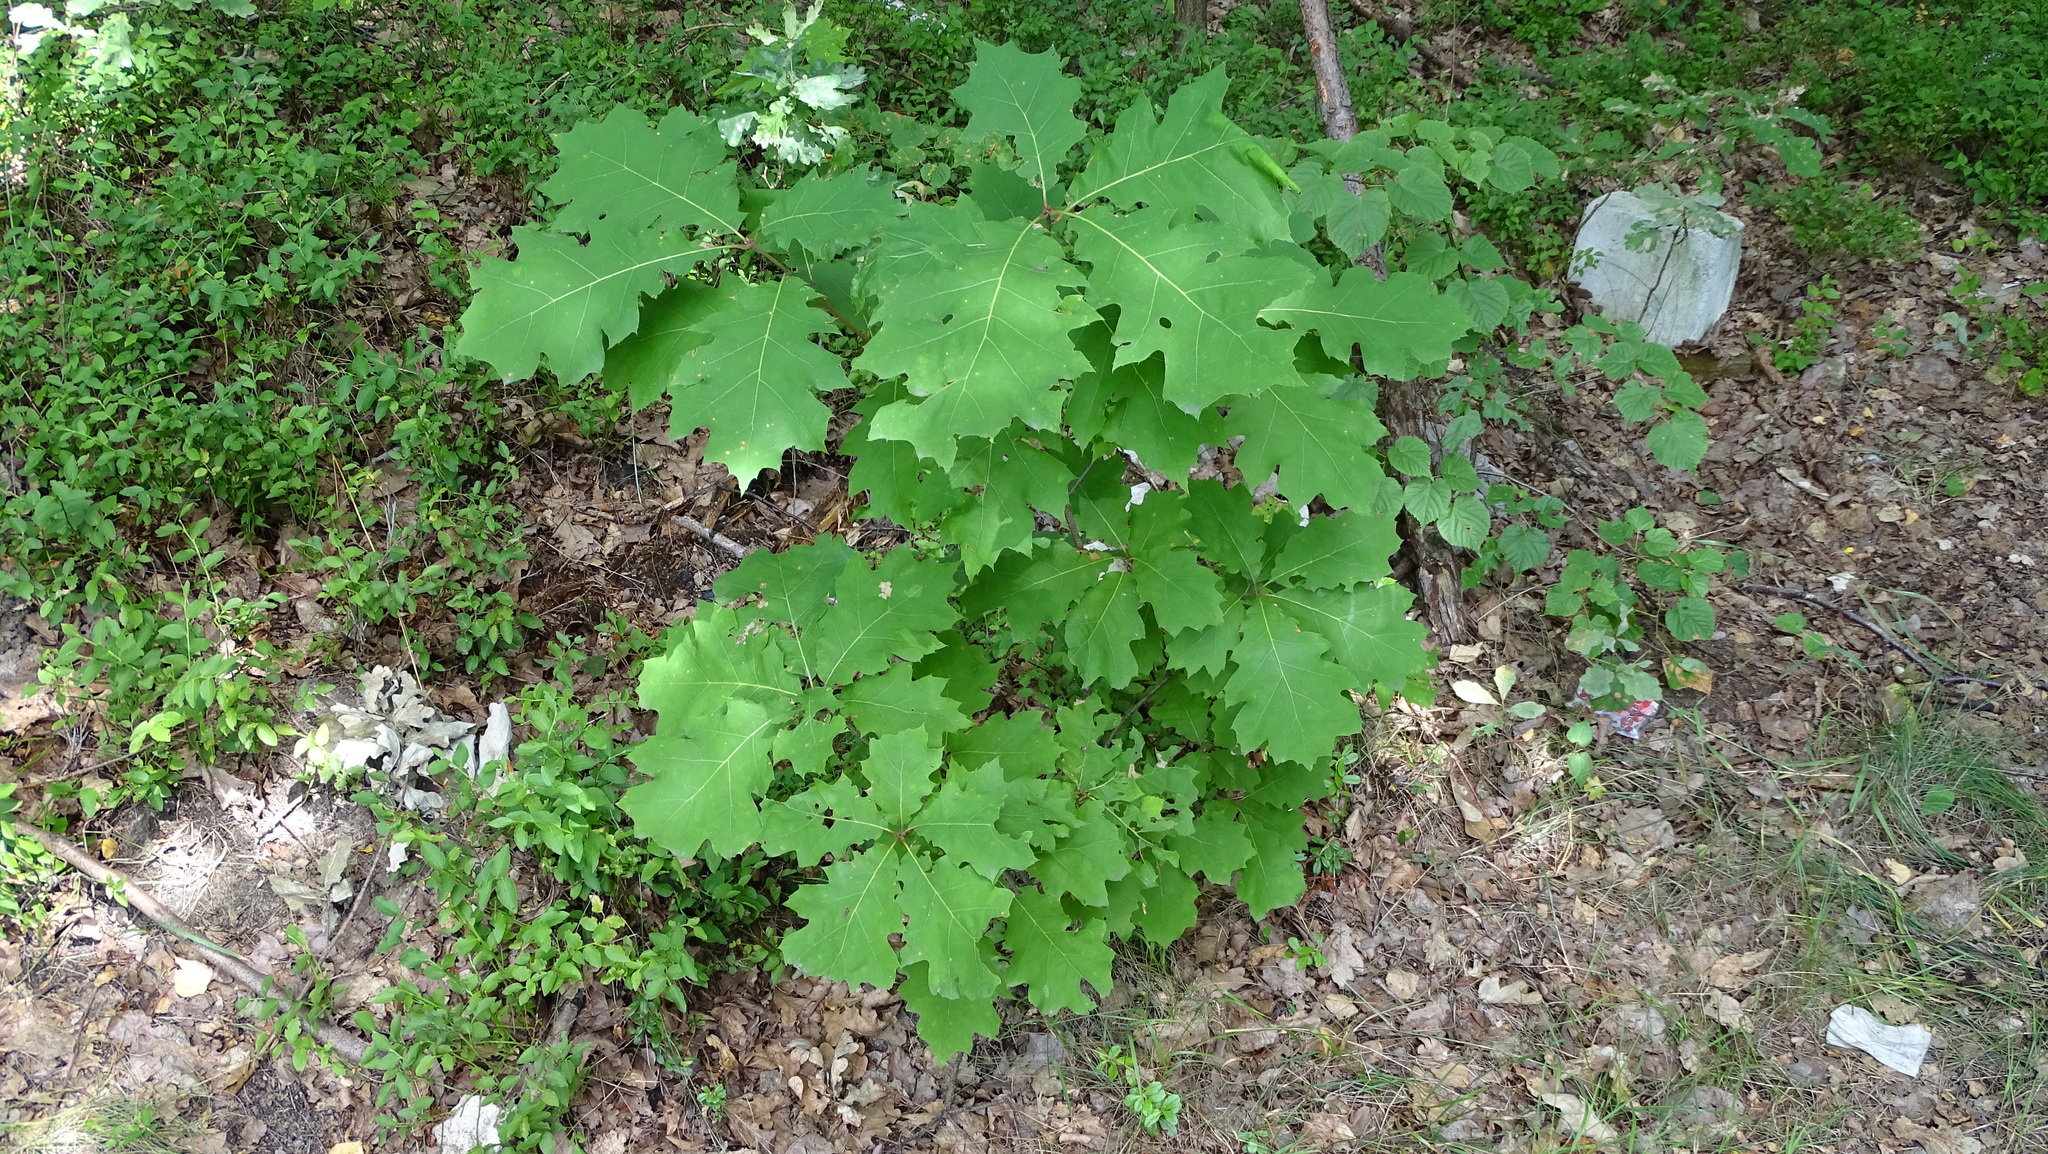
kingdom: Plantae
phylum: Tracheophyta
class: Magnoliopsida
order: Fagales
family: Fagaceae
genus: Quercus
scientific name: Quercus rubra
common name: Red oak
